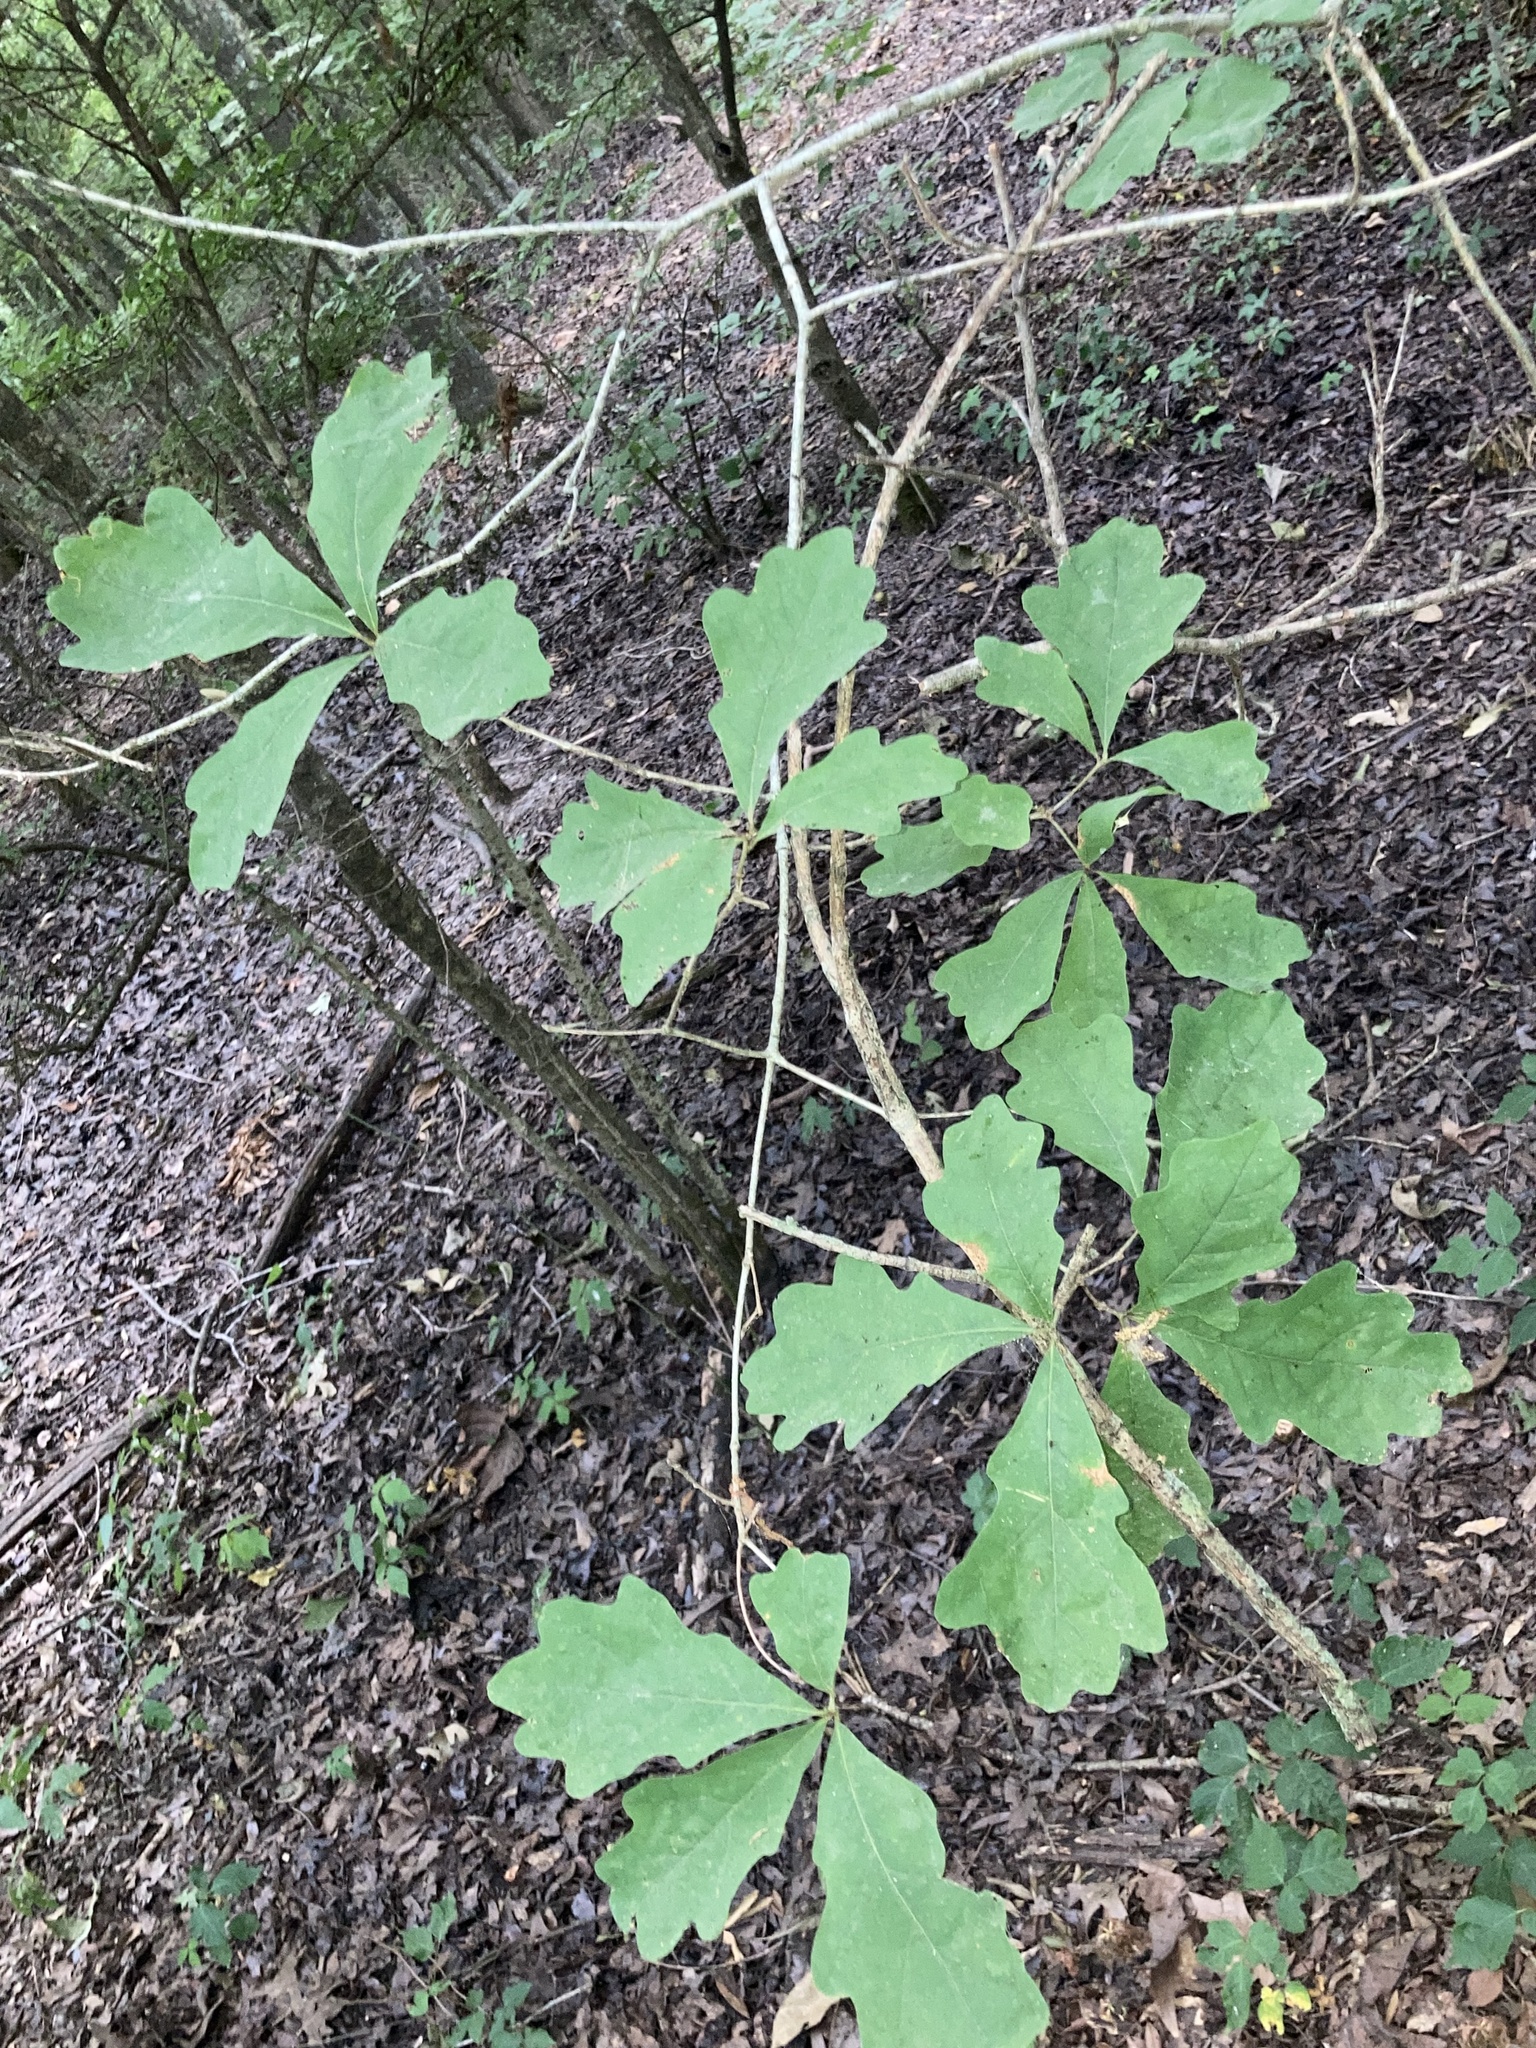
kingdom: Plantae
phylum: Tracheophyta
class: Magnoliopsida
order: Fagales
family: Fagaceae
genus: Quercus
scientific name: Quercus alba
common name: White oak
